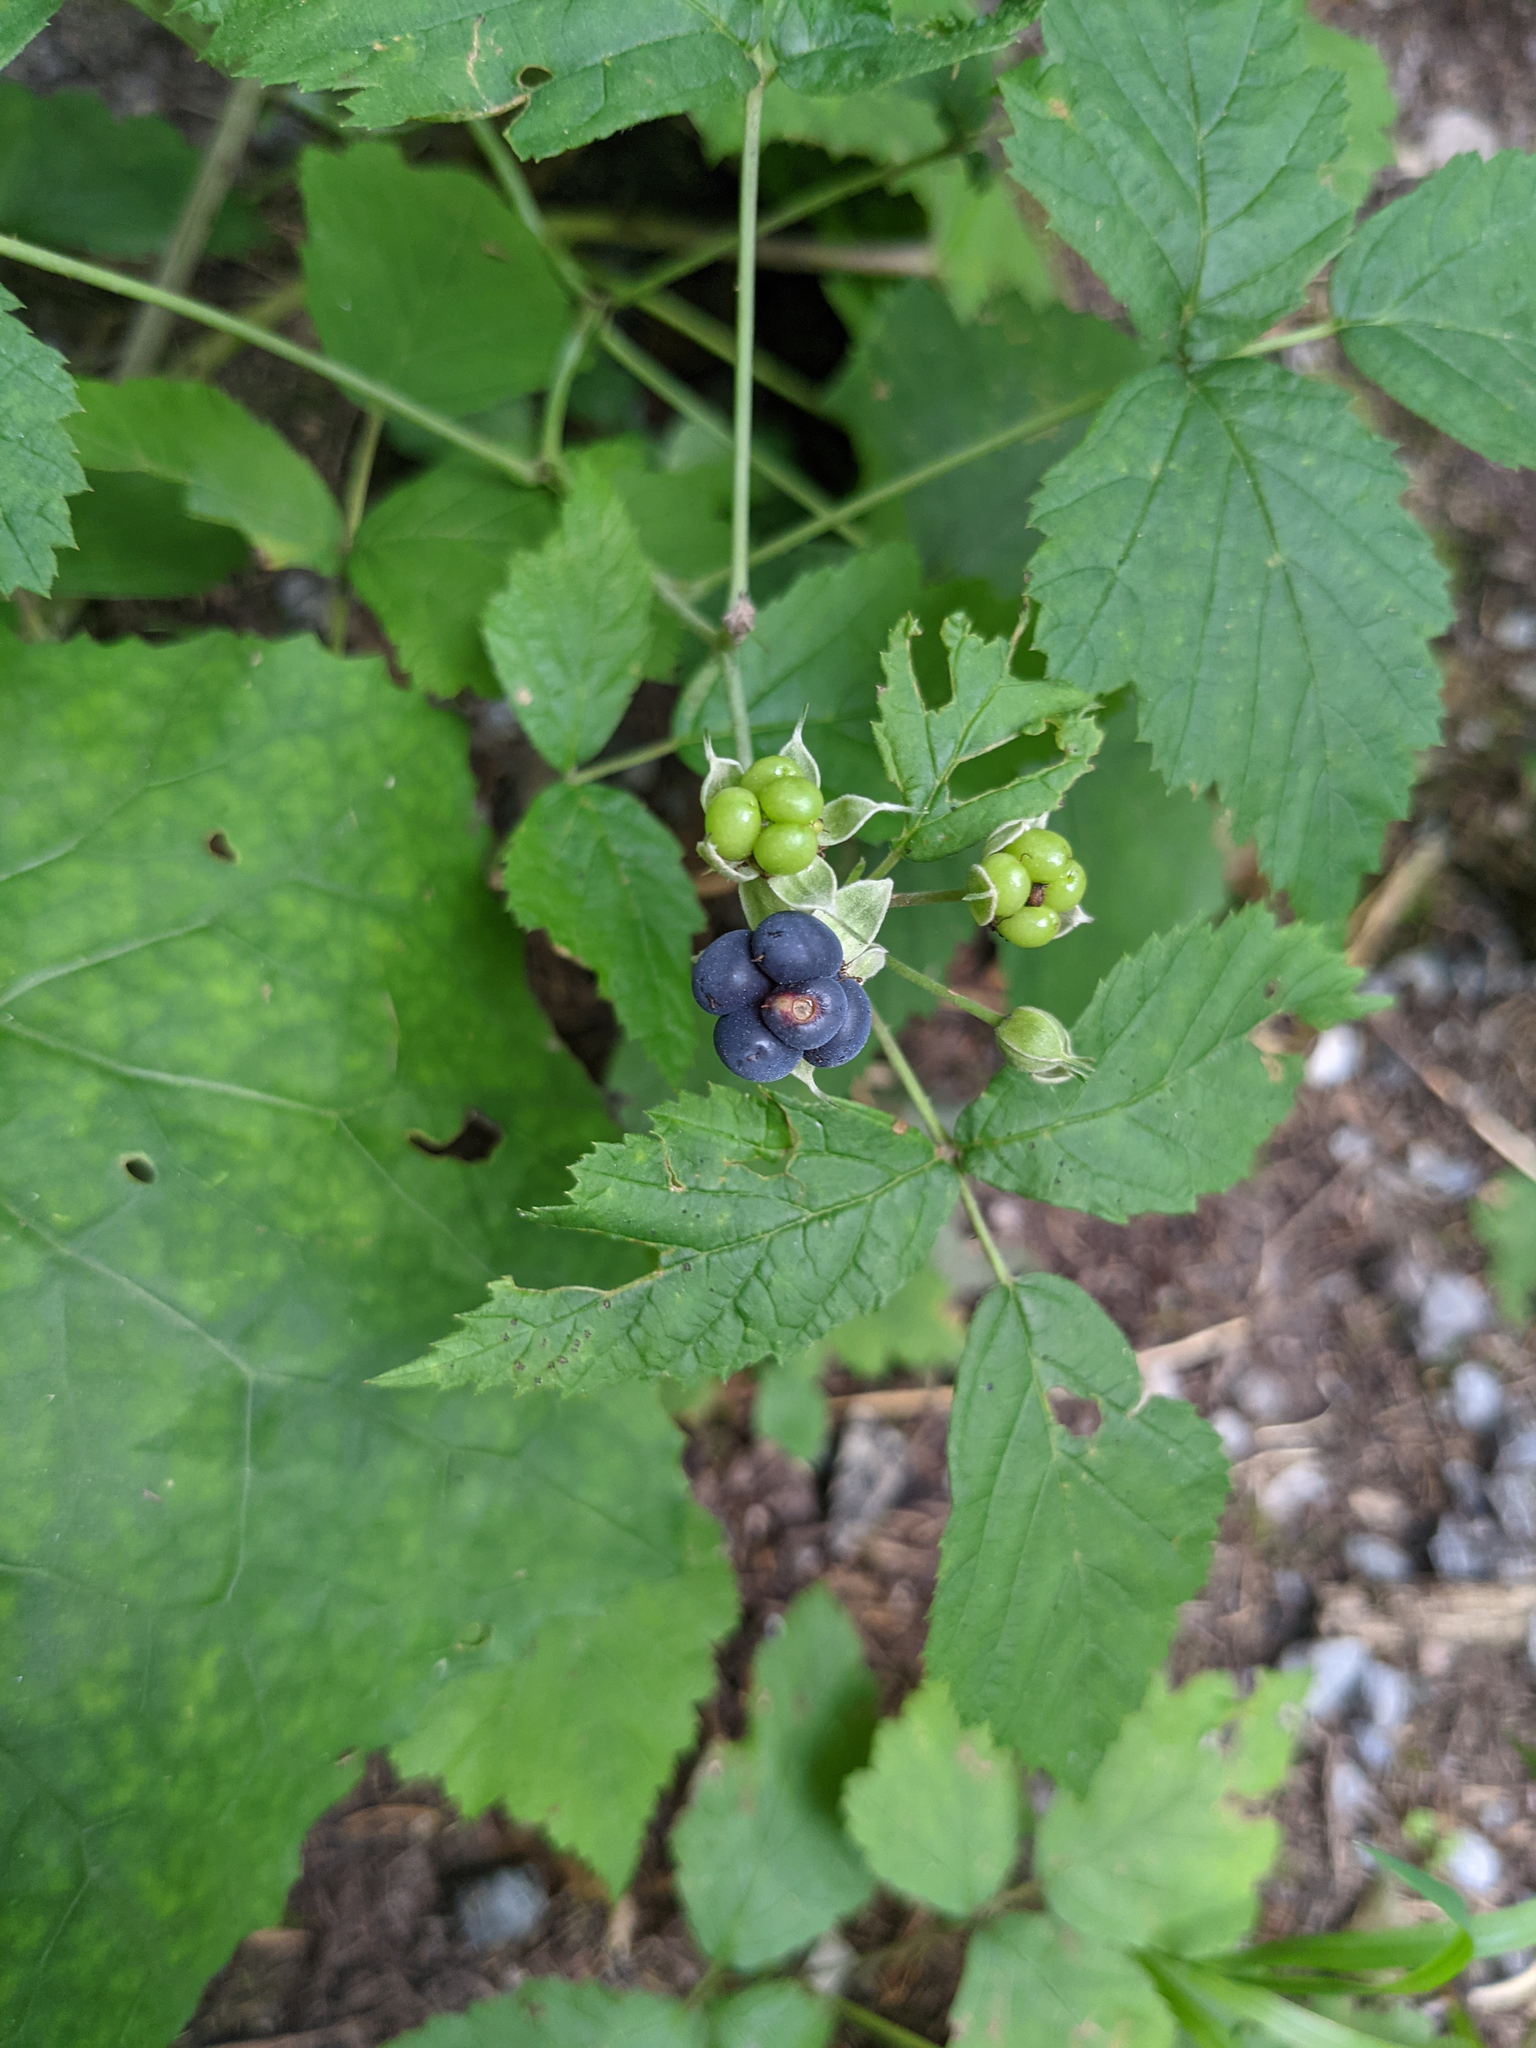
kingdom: Plantae
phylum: Tracheophyta
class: Magnoliopsida
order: Rosales
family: Rosaceae
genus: Rubus
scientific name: Rubus caesius
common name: Dewberry
